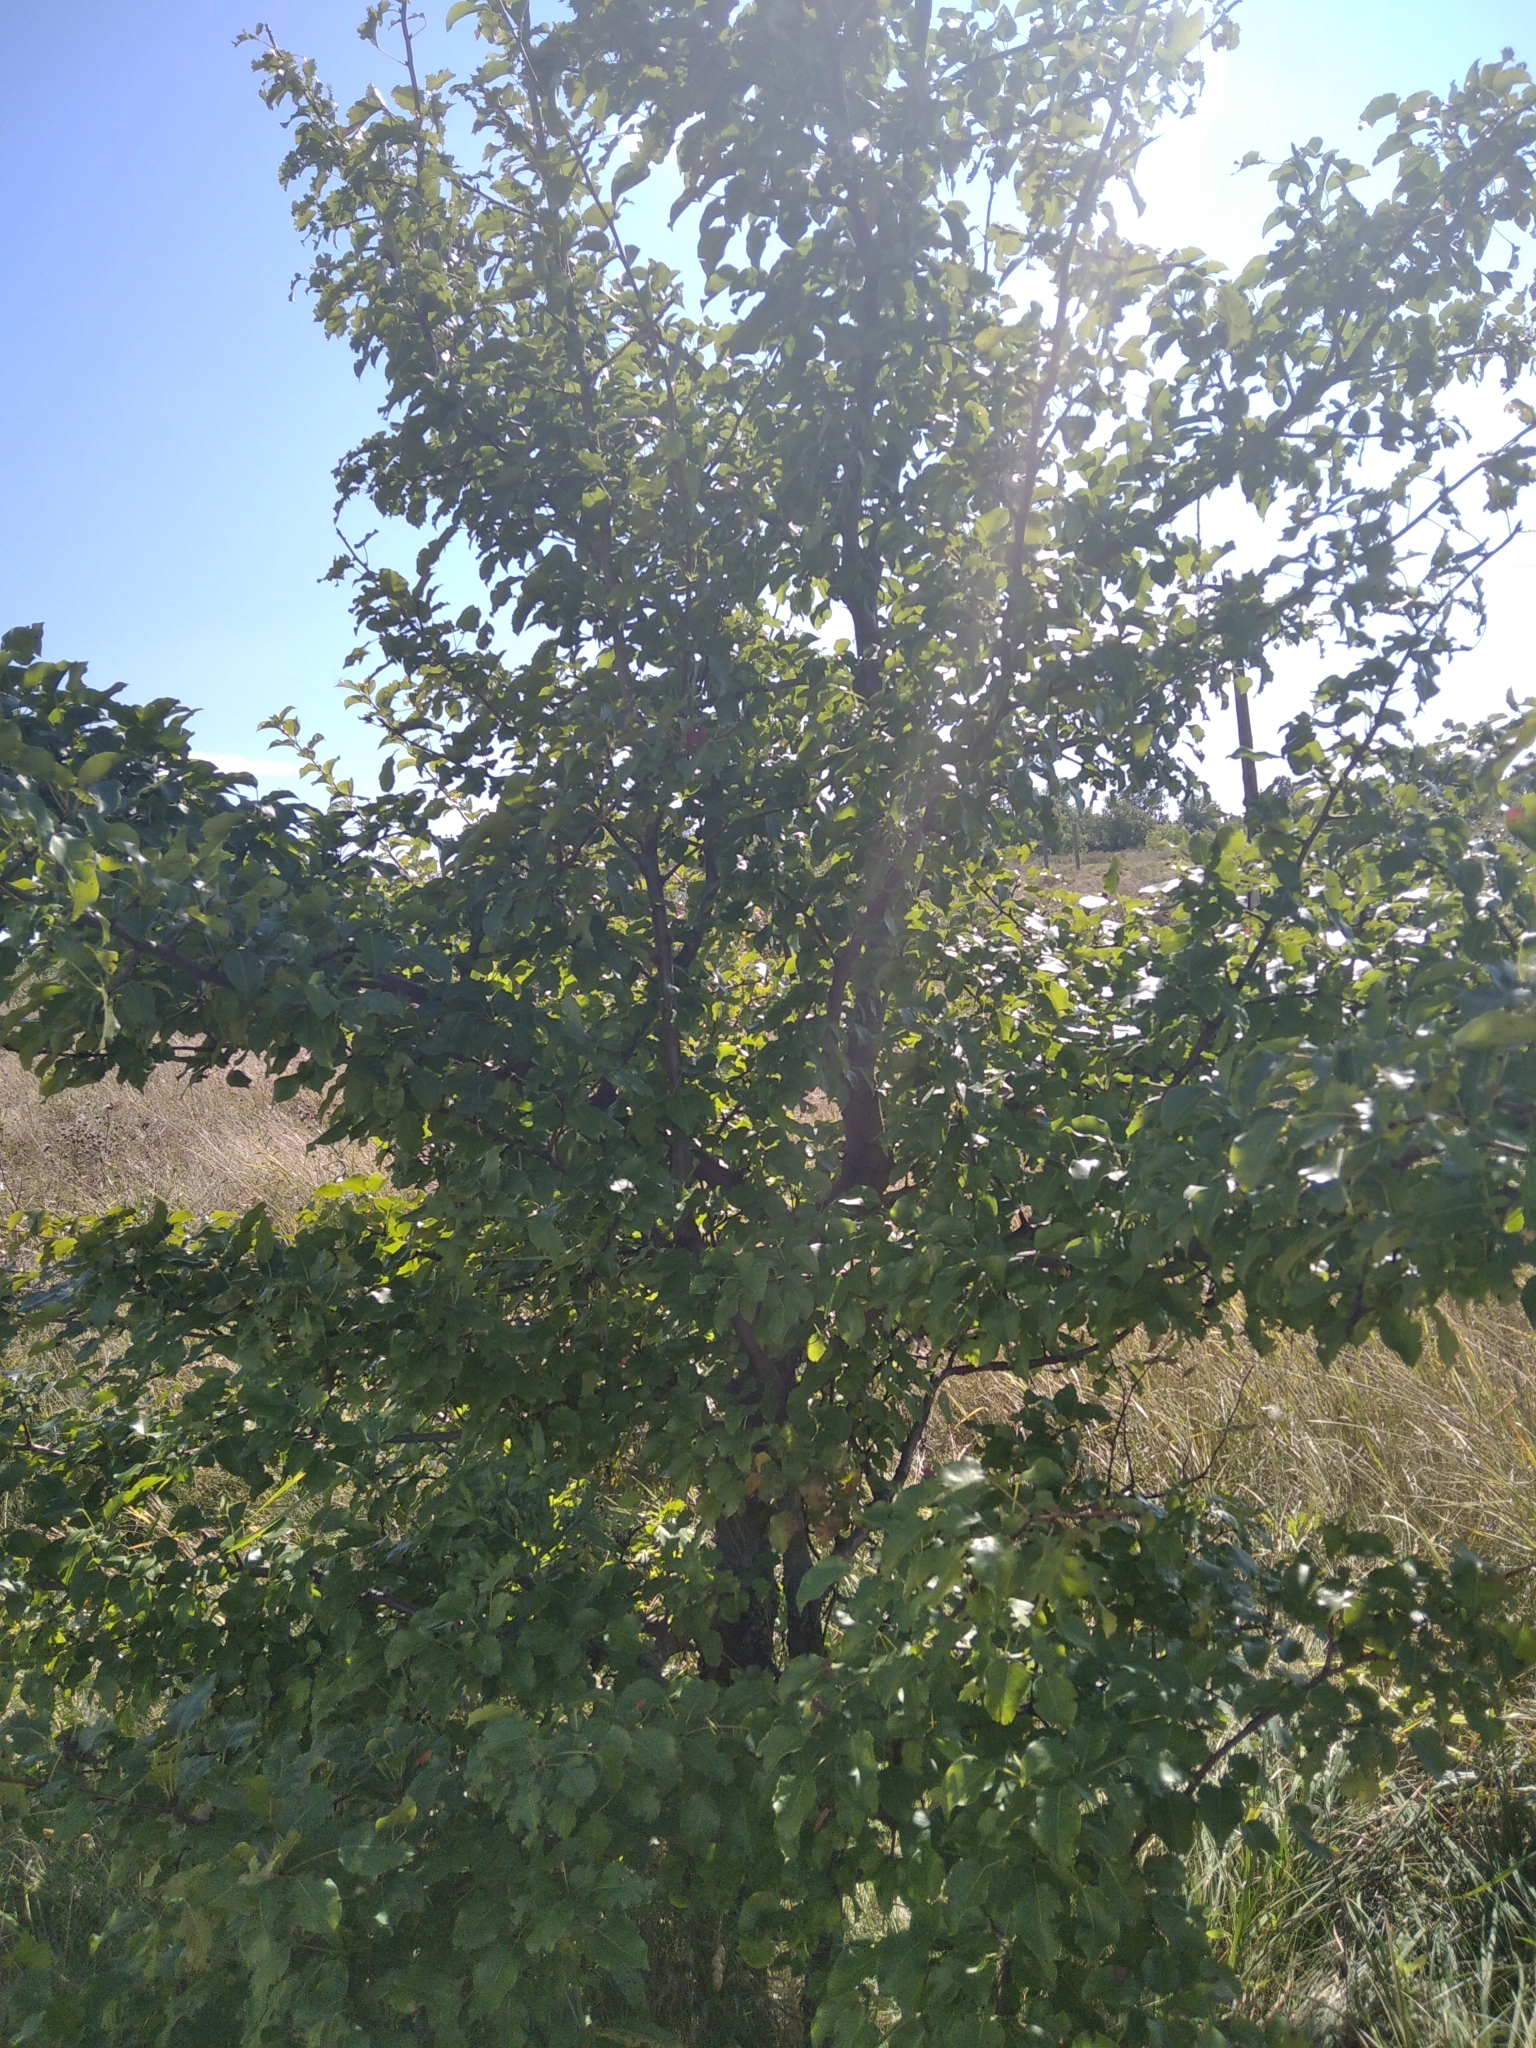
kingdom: Plantae
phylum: Tracheophyta
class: Magnoliopsida
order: Rosales
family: Rosaceae
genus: Pyrus
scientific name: Pyrus communis
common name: Pear
